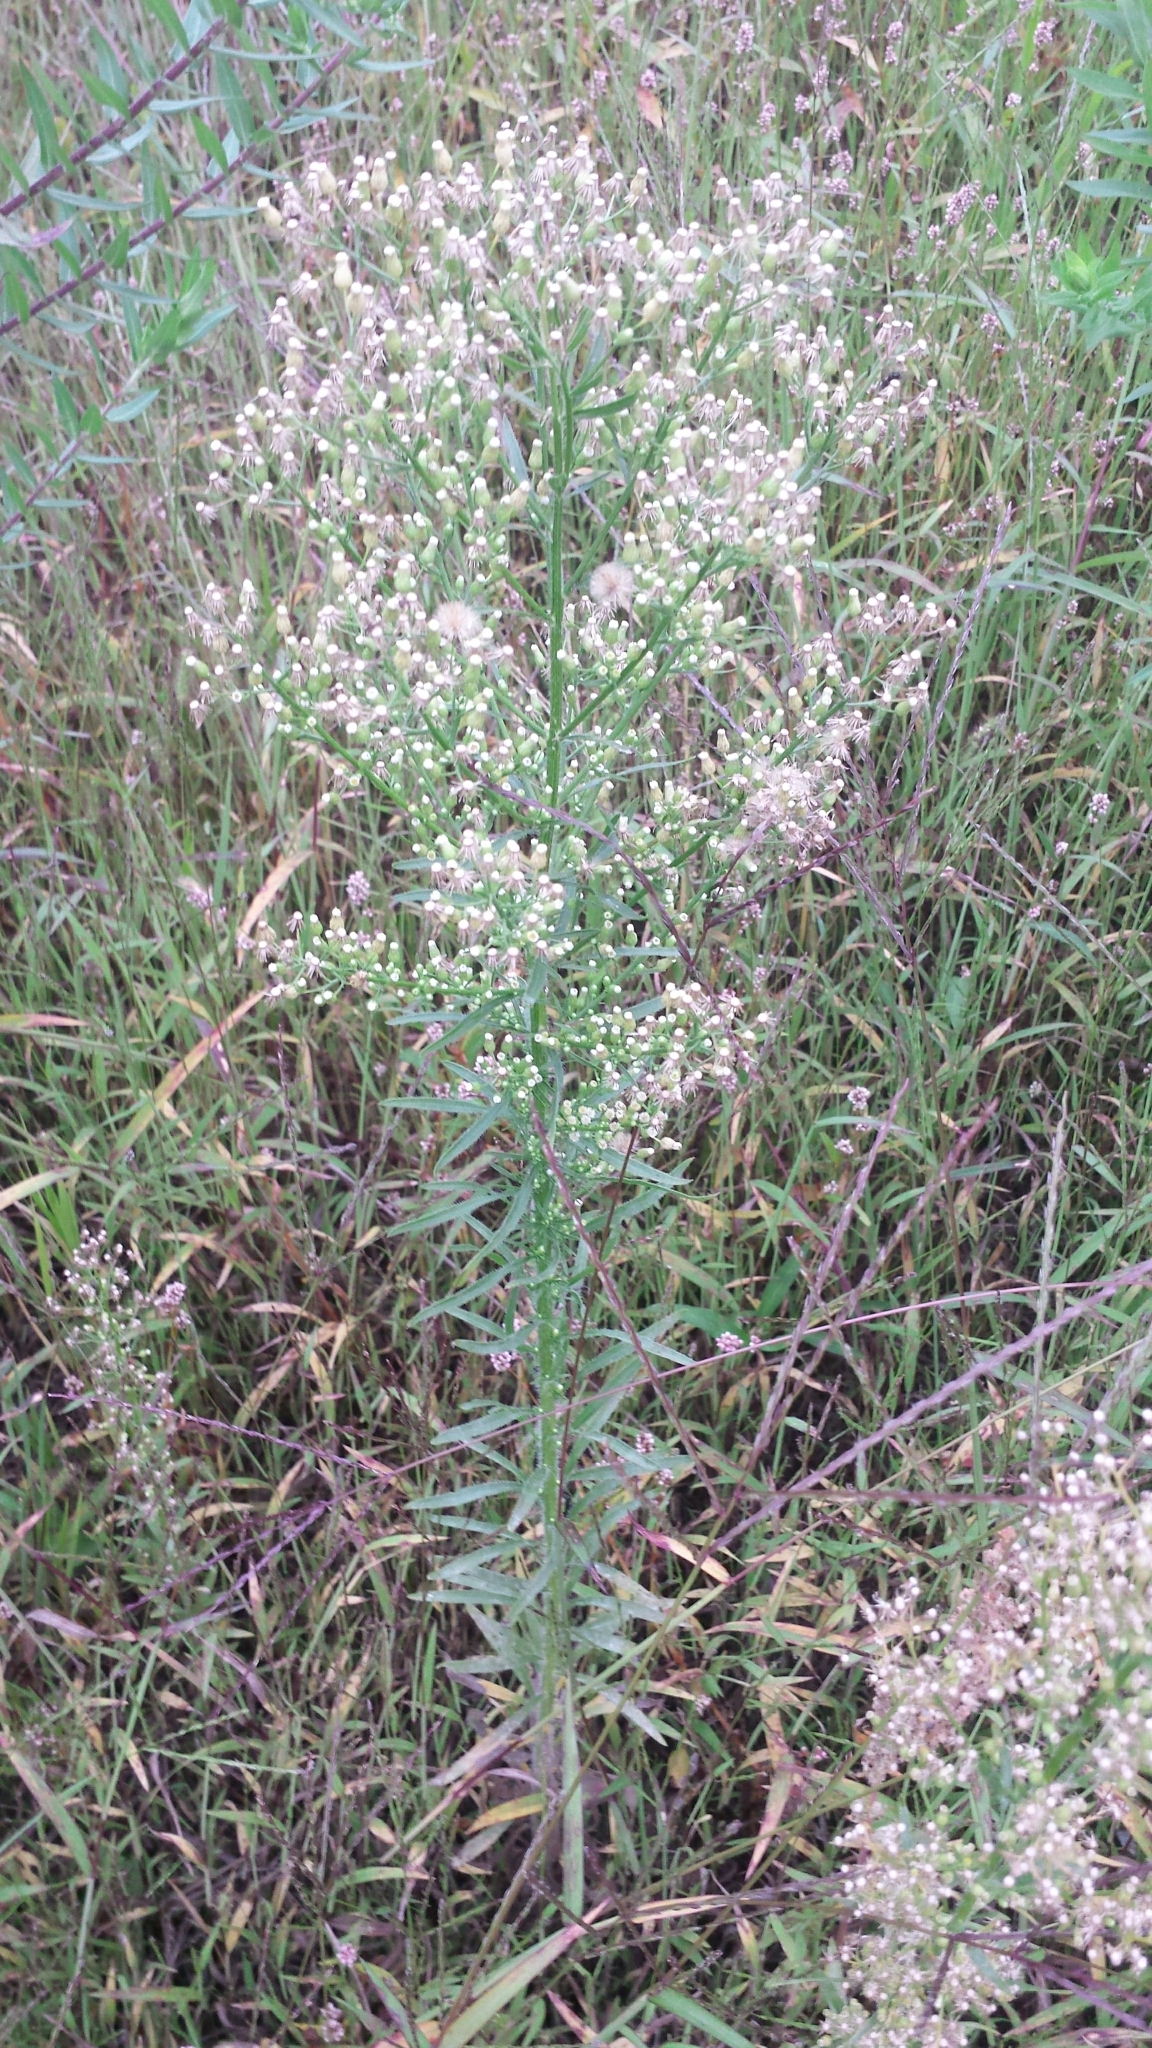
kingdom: Plantae
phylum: Tracheophyta
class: Magnoliopsida
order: Asterales
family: Asteraceae
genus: Erigeron
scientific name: Erigeron canadensis
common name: Canadian fleabane
